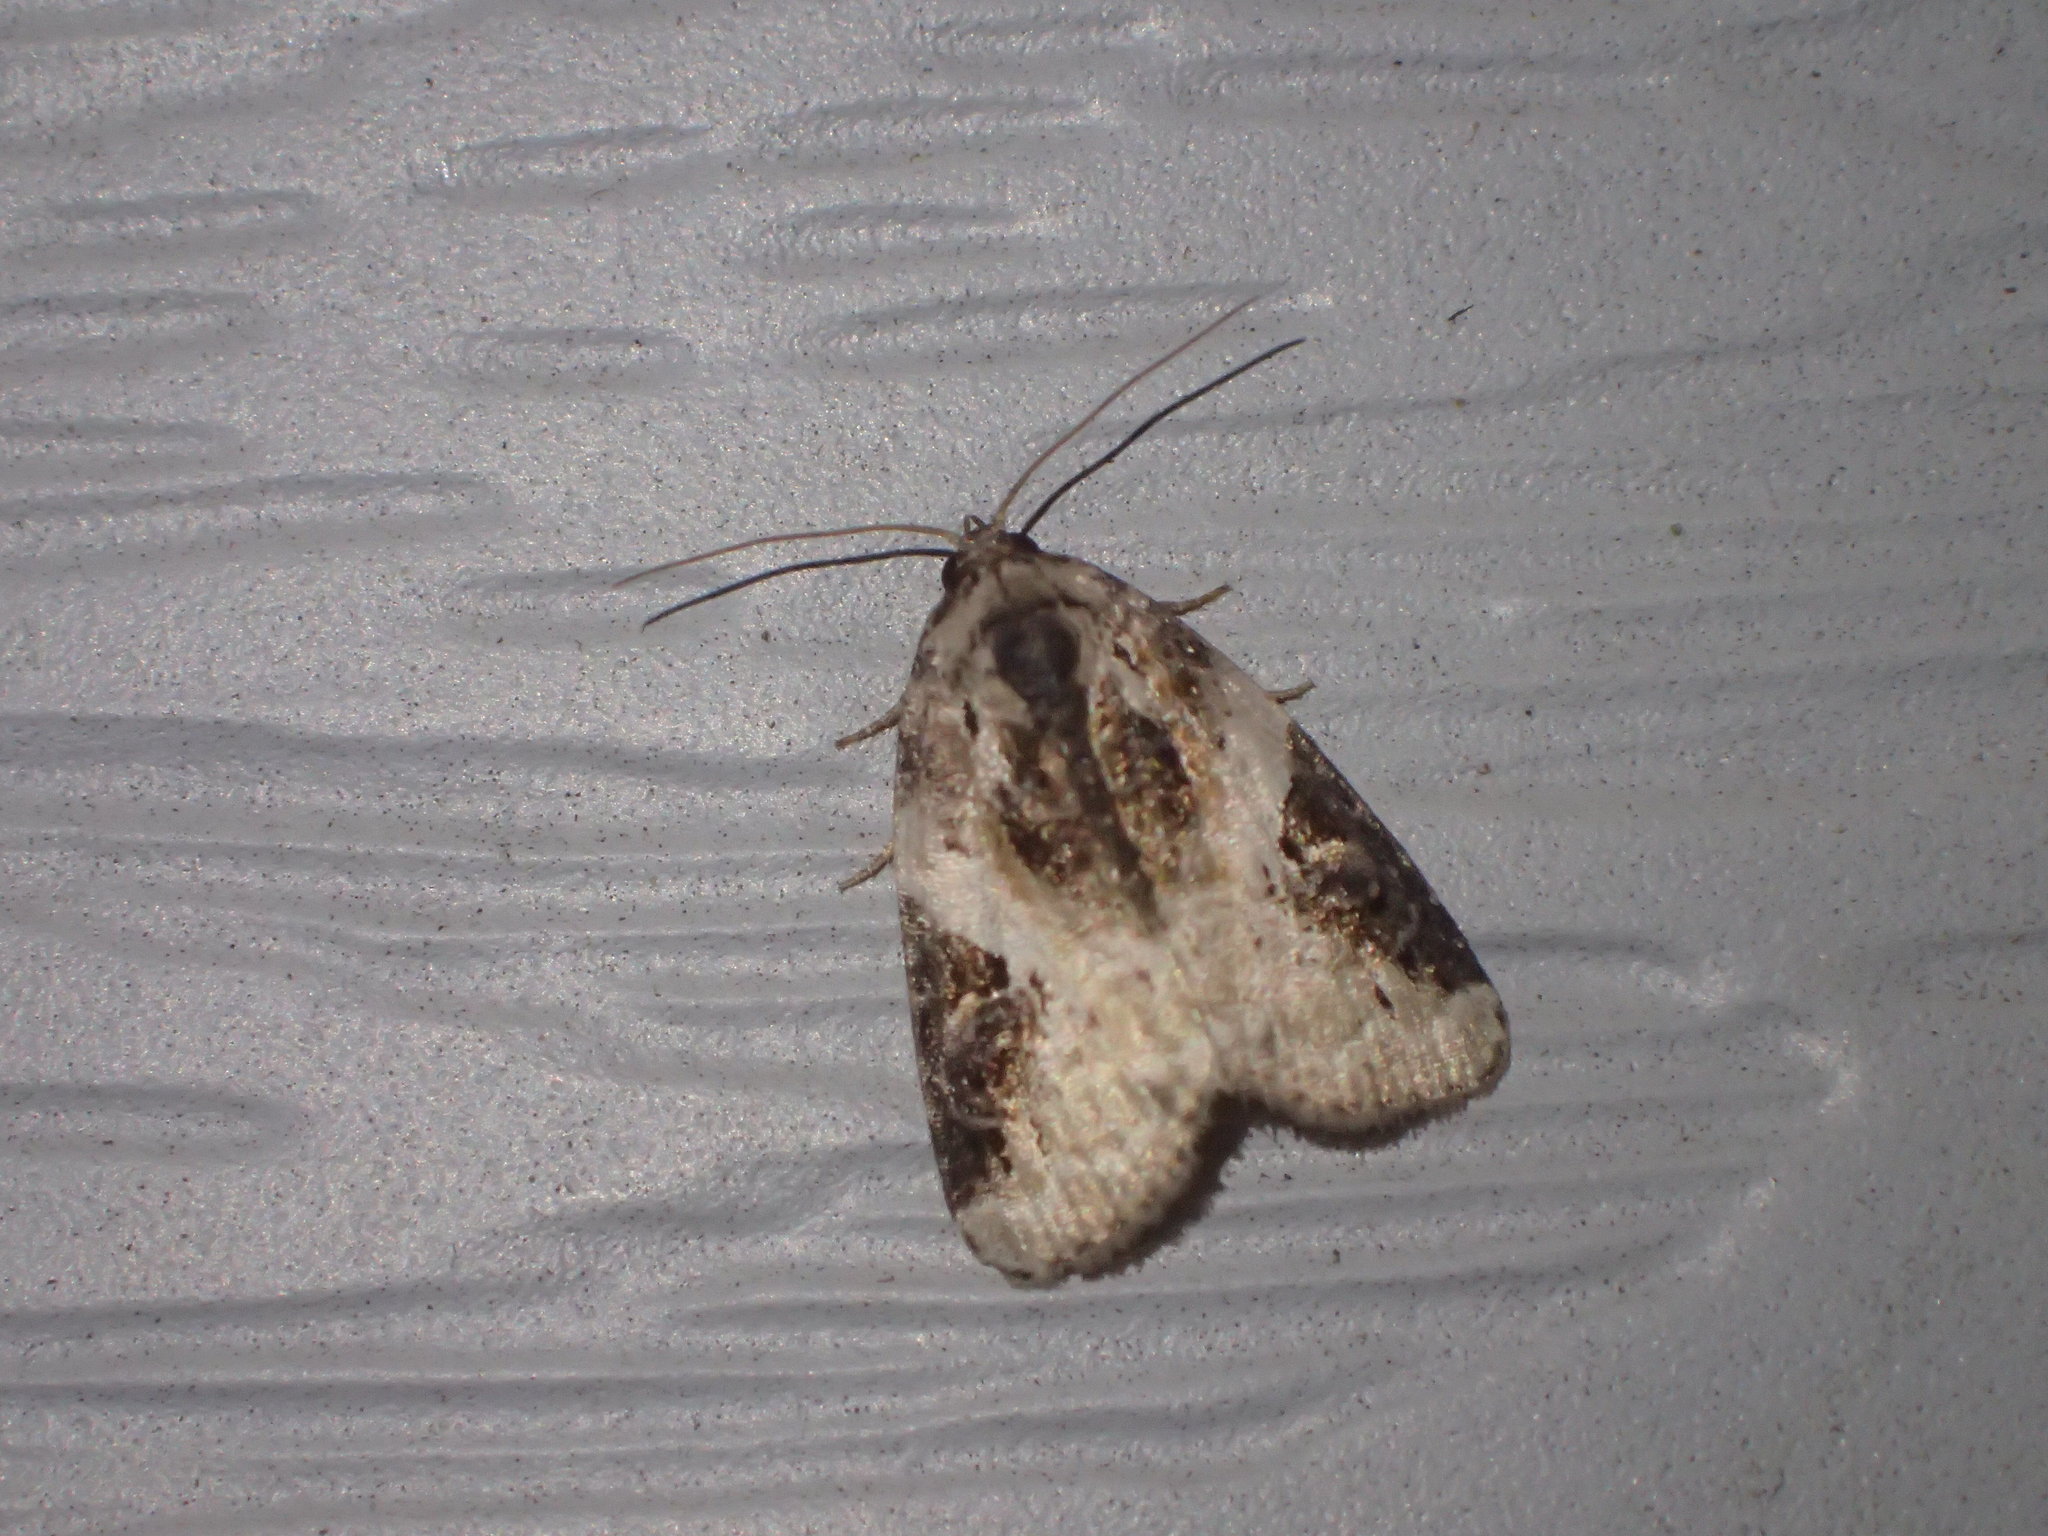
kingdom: Animalia
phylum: Arthropoda
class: Insecta
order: Lepidoptera
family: Noctuidae
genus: Pseudeustrotia
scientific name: Pseudeustrotia carneola
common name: Pink-barred lithacodia moth
